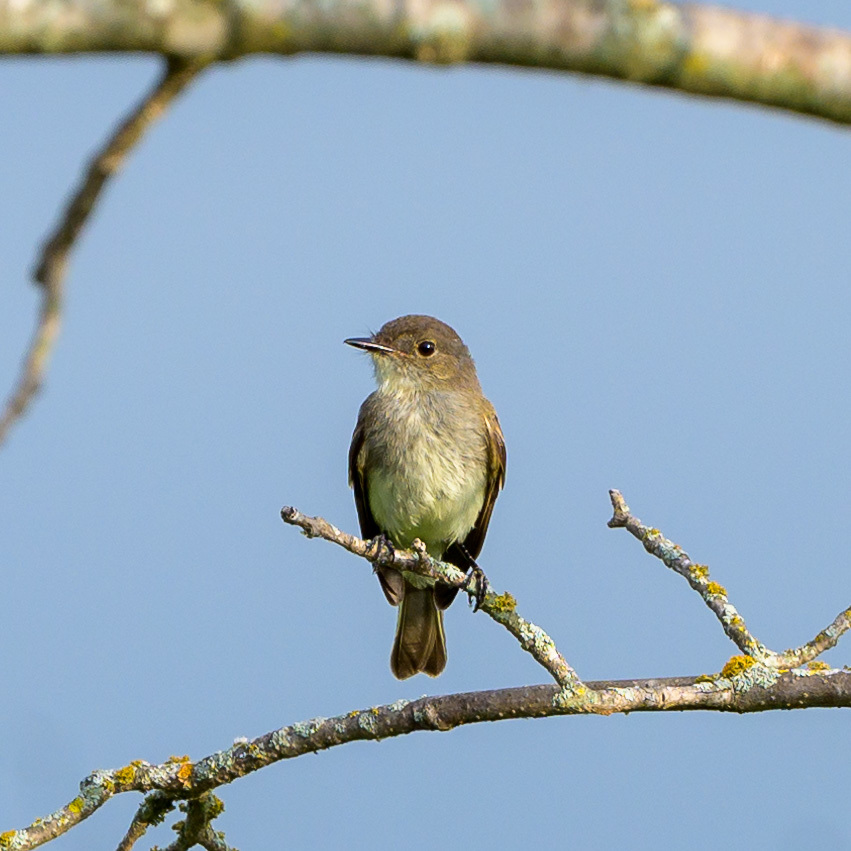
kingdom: Animalia
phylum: Chordata
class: Aves
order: Passeriformes
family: Tyrannidae
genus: Sayornis
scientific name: Sayornis phoebe
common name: Eastern phoebe
